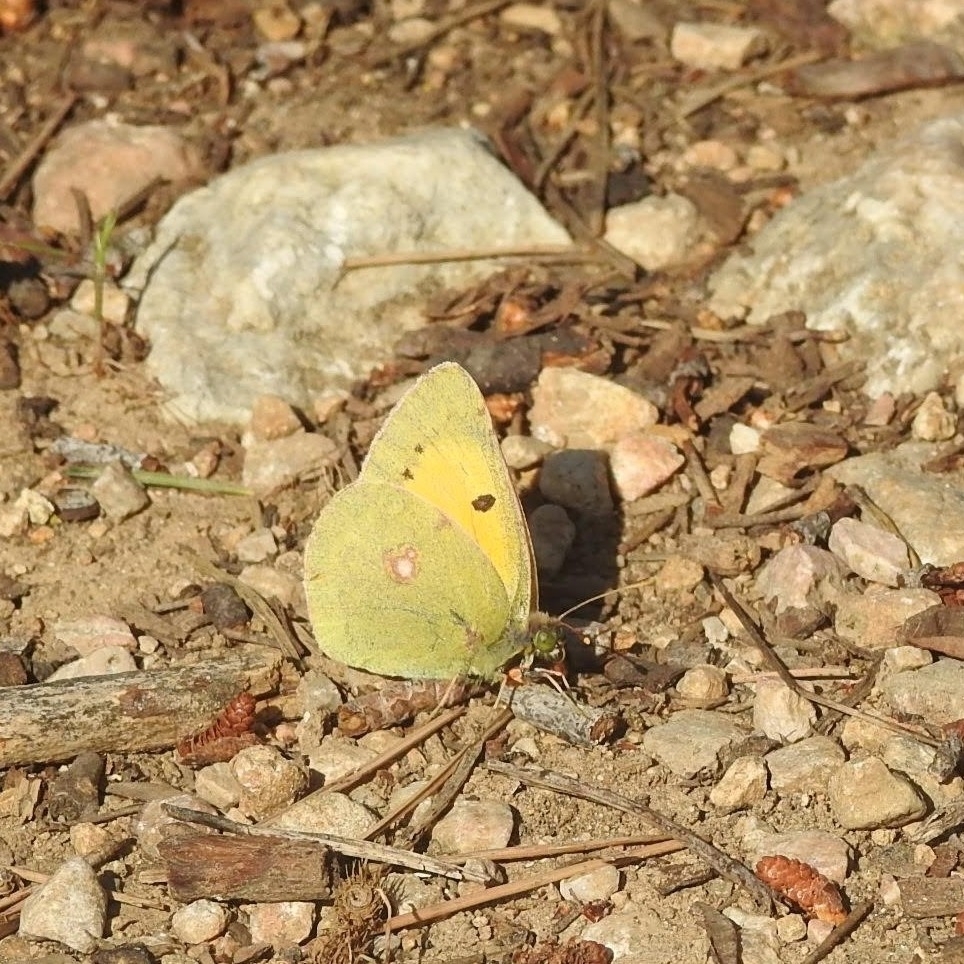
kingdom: Animalia
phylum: Arthropoda
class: Insecta
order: Lepidoptera
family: Pieridae
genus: Colias
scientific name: Colias croceus
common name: Clouded yellow
